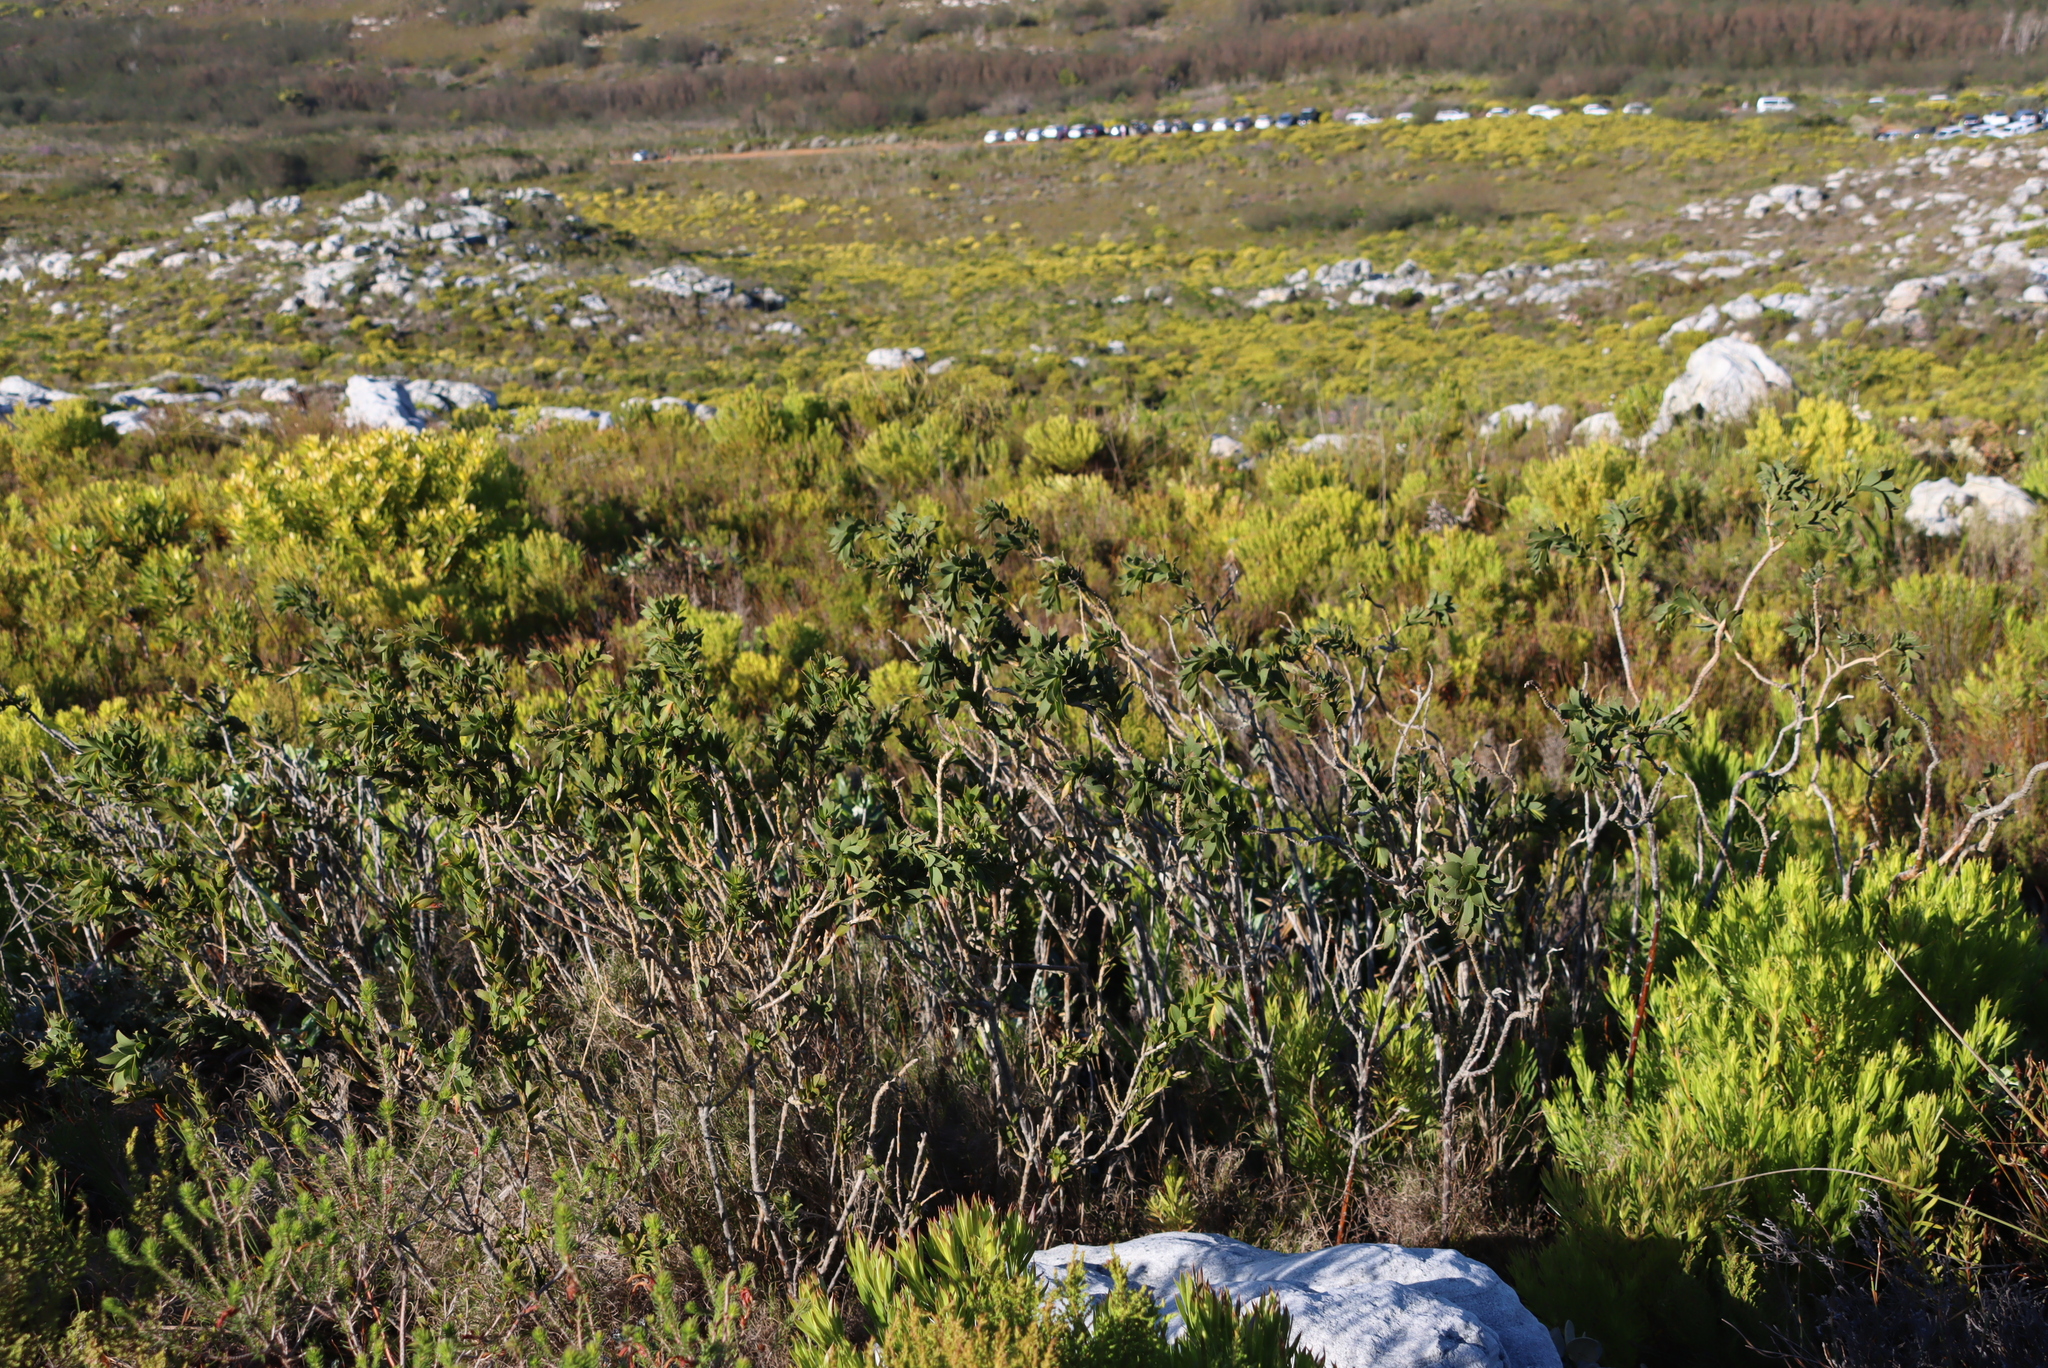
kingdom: Plantae
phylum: Tracheophyta
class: Magnoliopsida
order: Fabales
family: Fabaceae
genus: Liparia
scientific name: Liparia splendens
